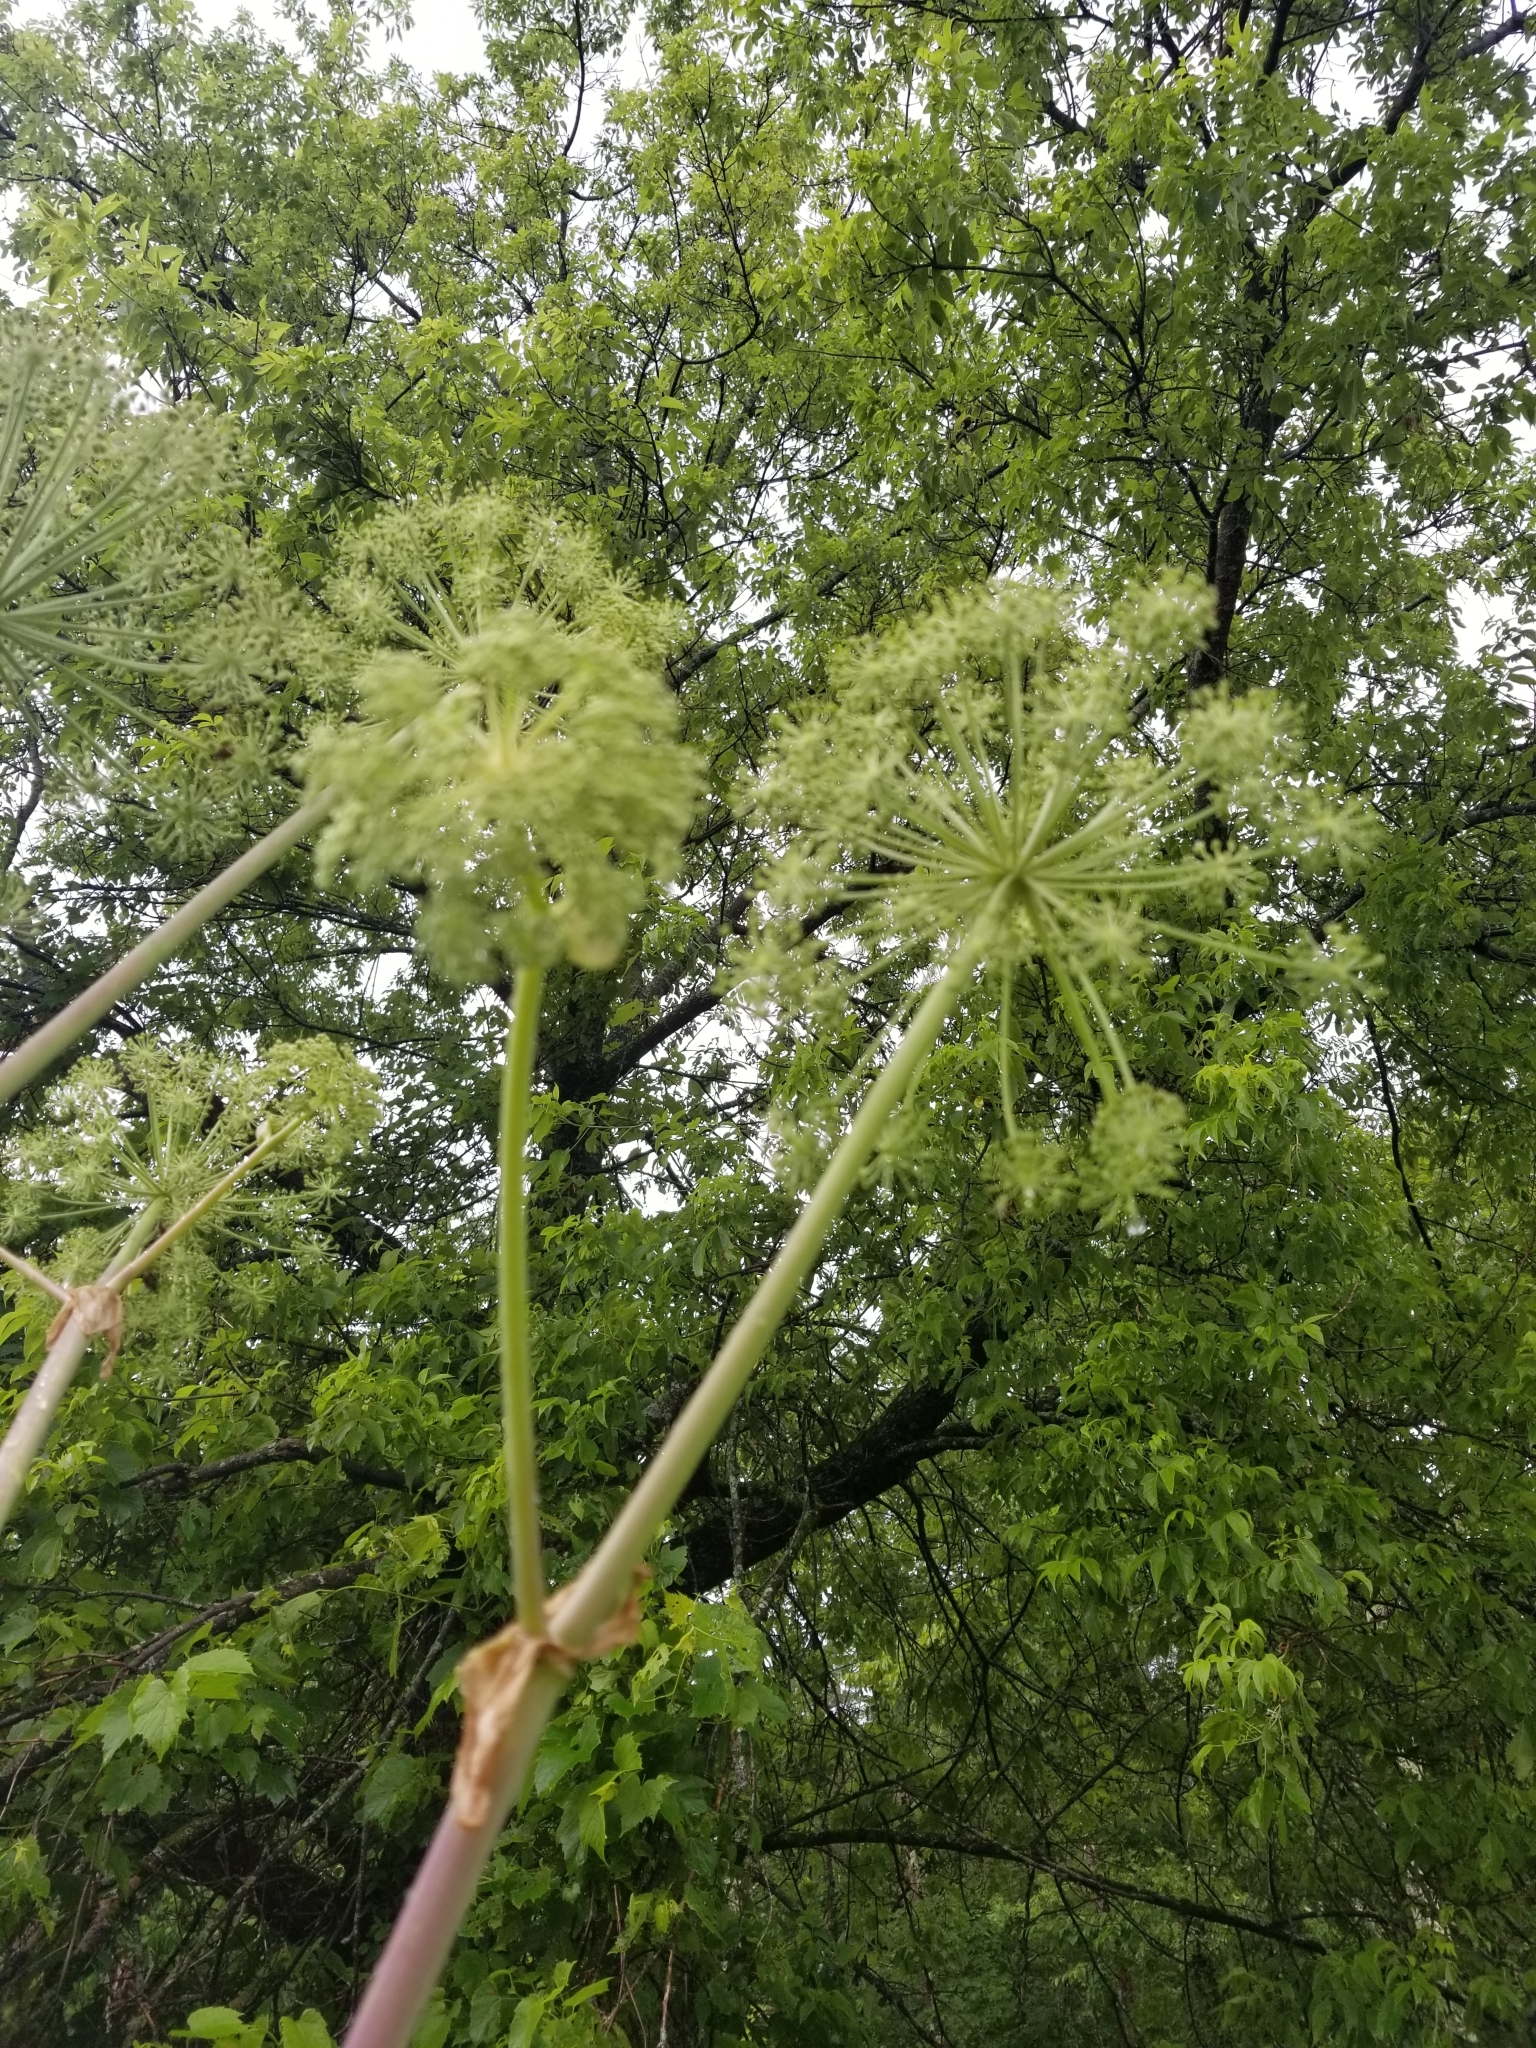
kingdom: Plantae
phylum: Tracheophyta
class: Magnoliopsida
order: Apiales
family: Apiaceae
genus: Angelica
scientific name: Angelica atropurpurea
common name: Great angelica
